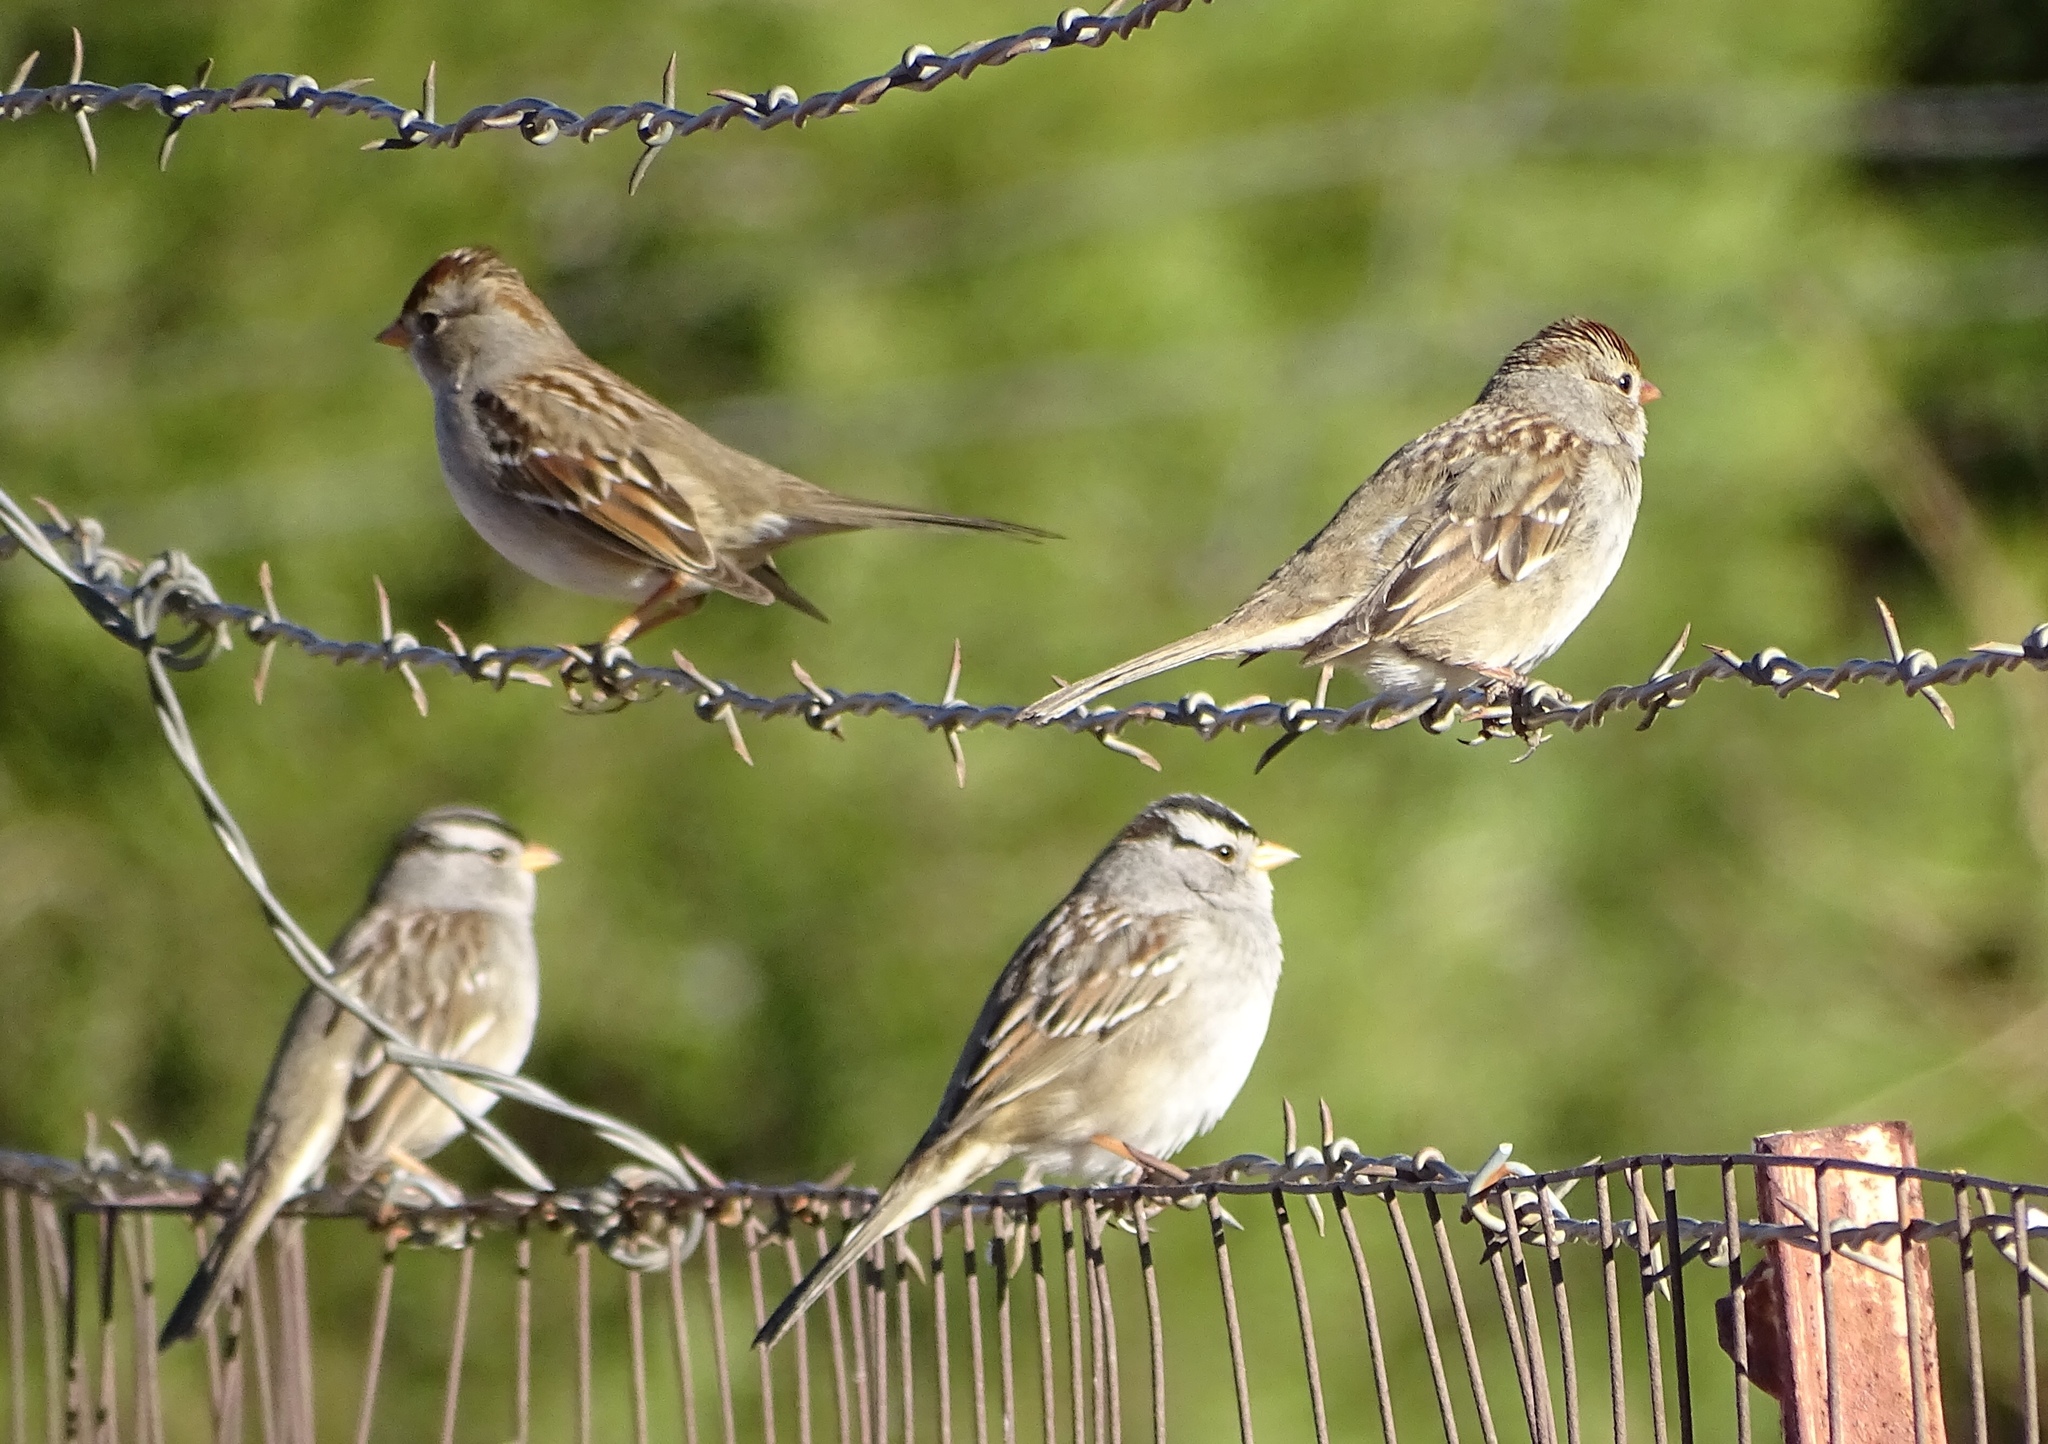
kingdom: Animalia
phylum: Chordata
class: Aves
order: Passeriformes
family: Passerellidae
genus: Zonotrichia
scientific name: Zonotrichia leucophrys
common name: White-crowned sparrow
